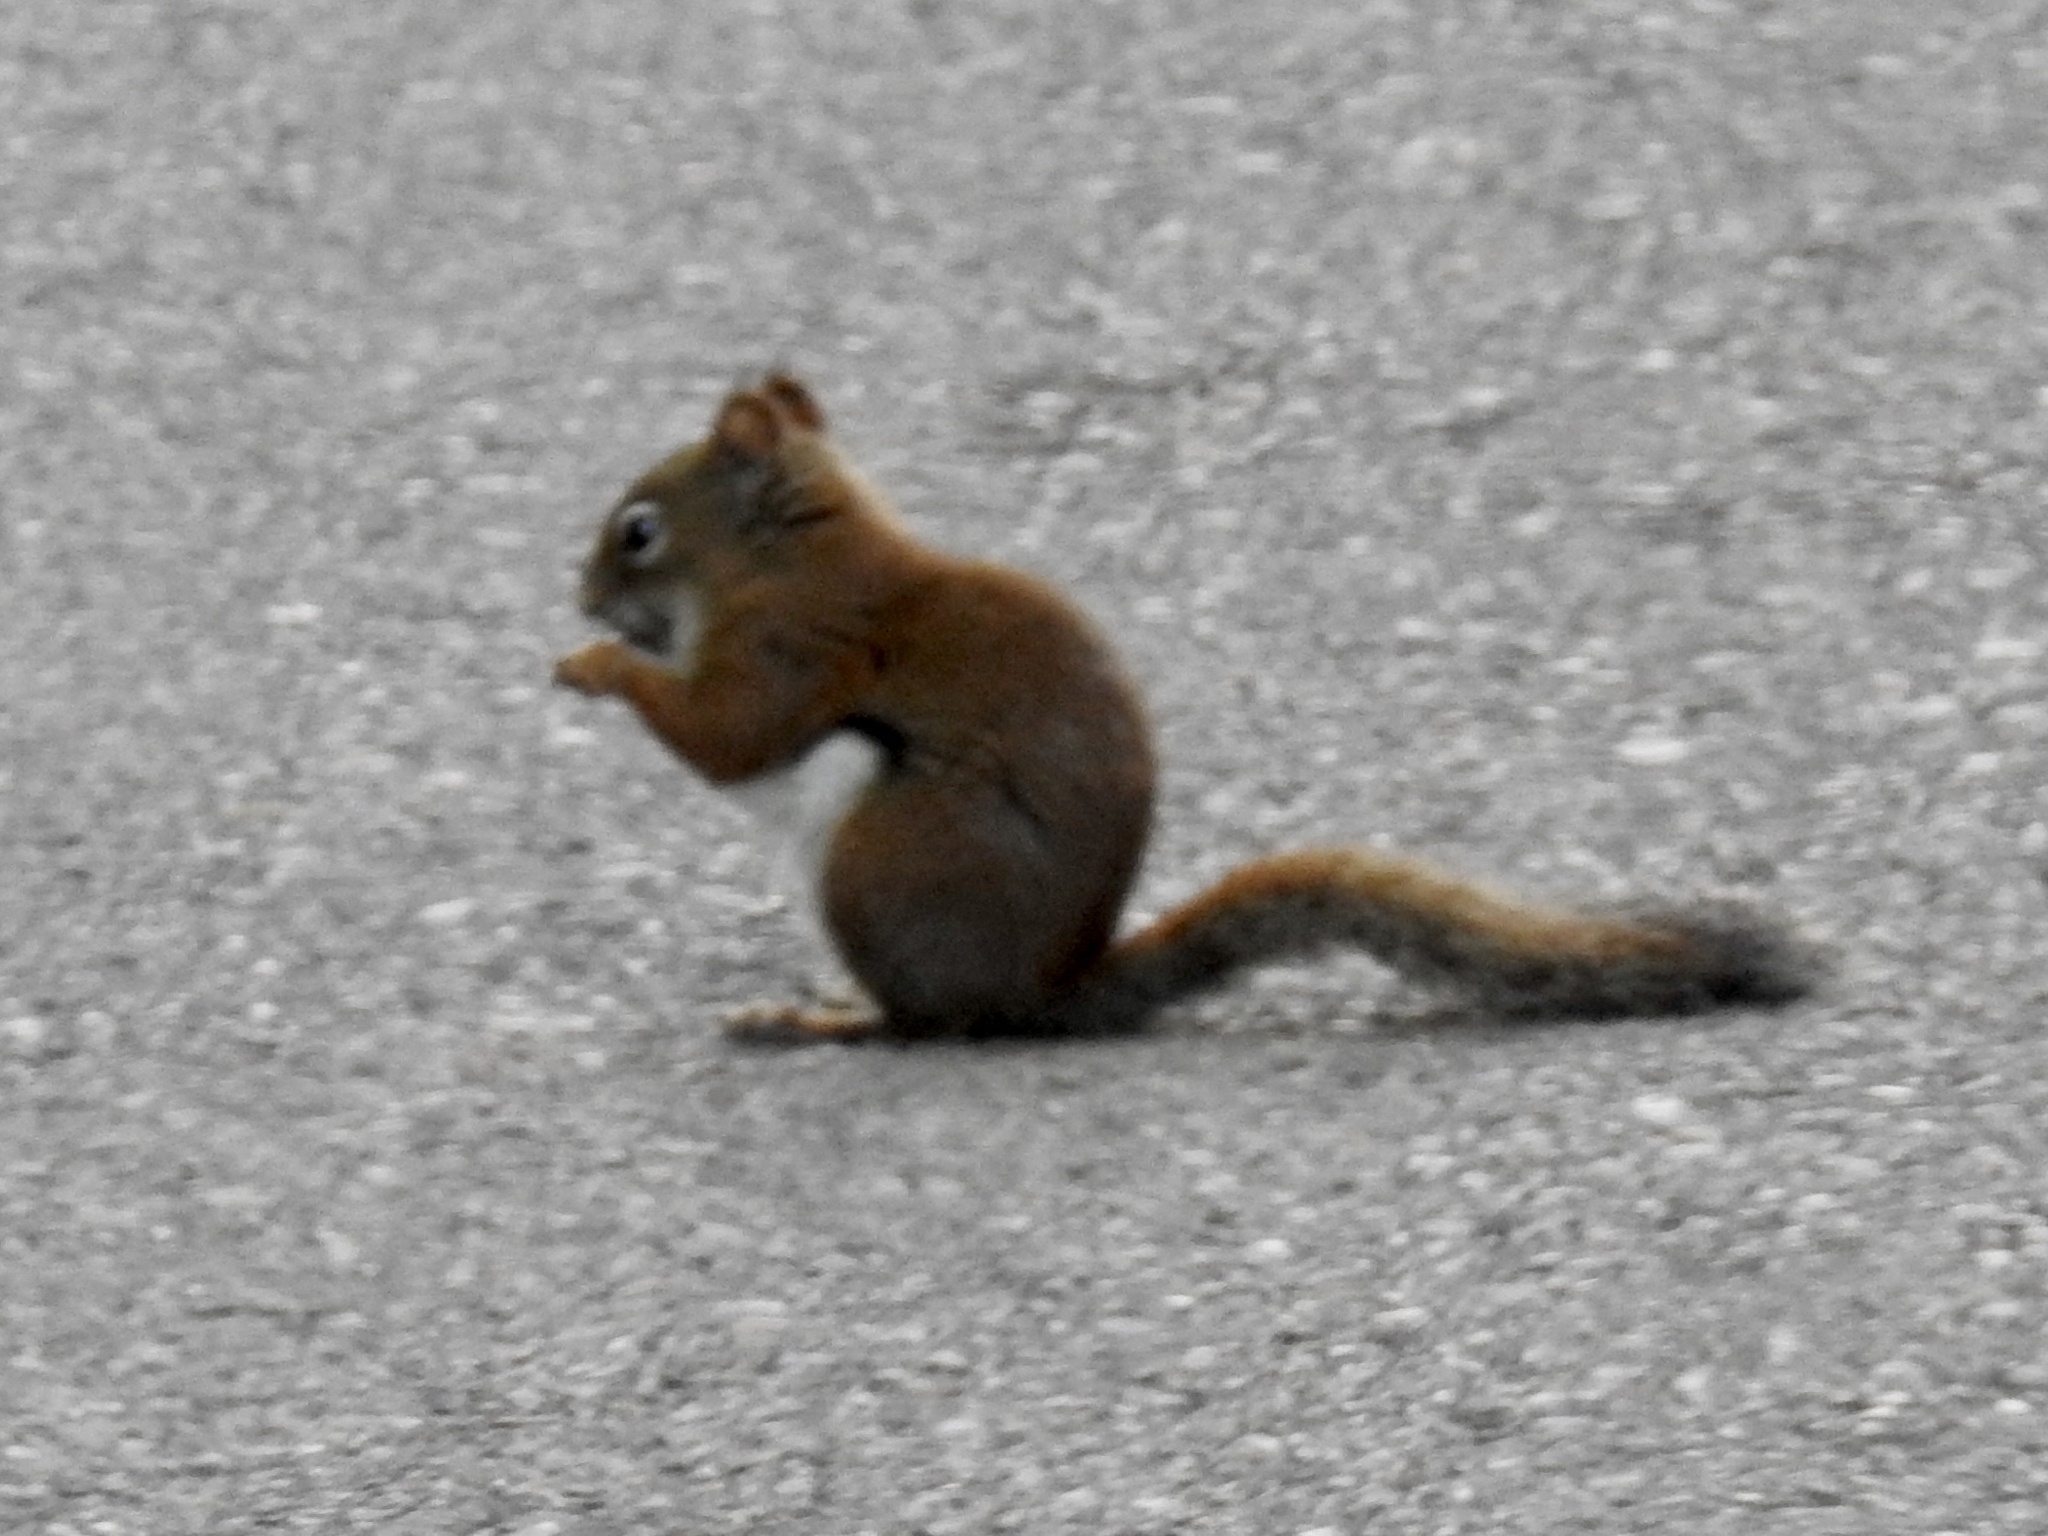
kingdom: Animalia
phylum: Chordata
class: Mammalia
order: Rodentia
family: Sciuridae
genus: Tamiasciurus
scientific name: Tamiasciurus hudsonicus
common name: Red squirrel
